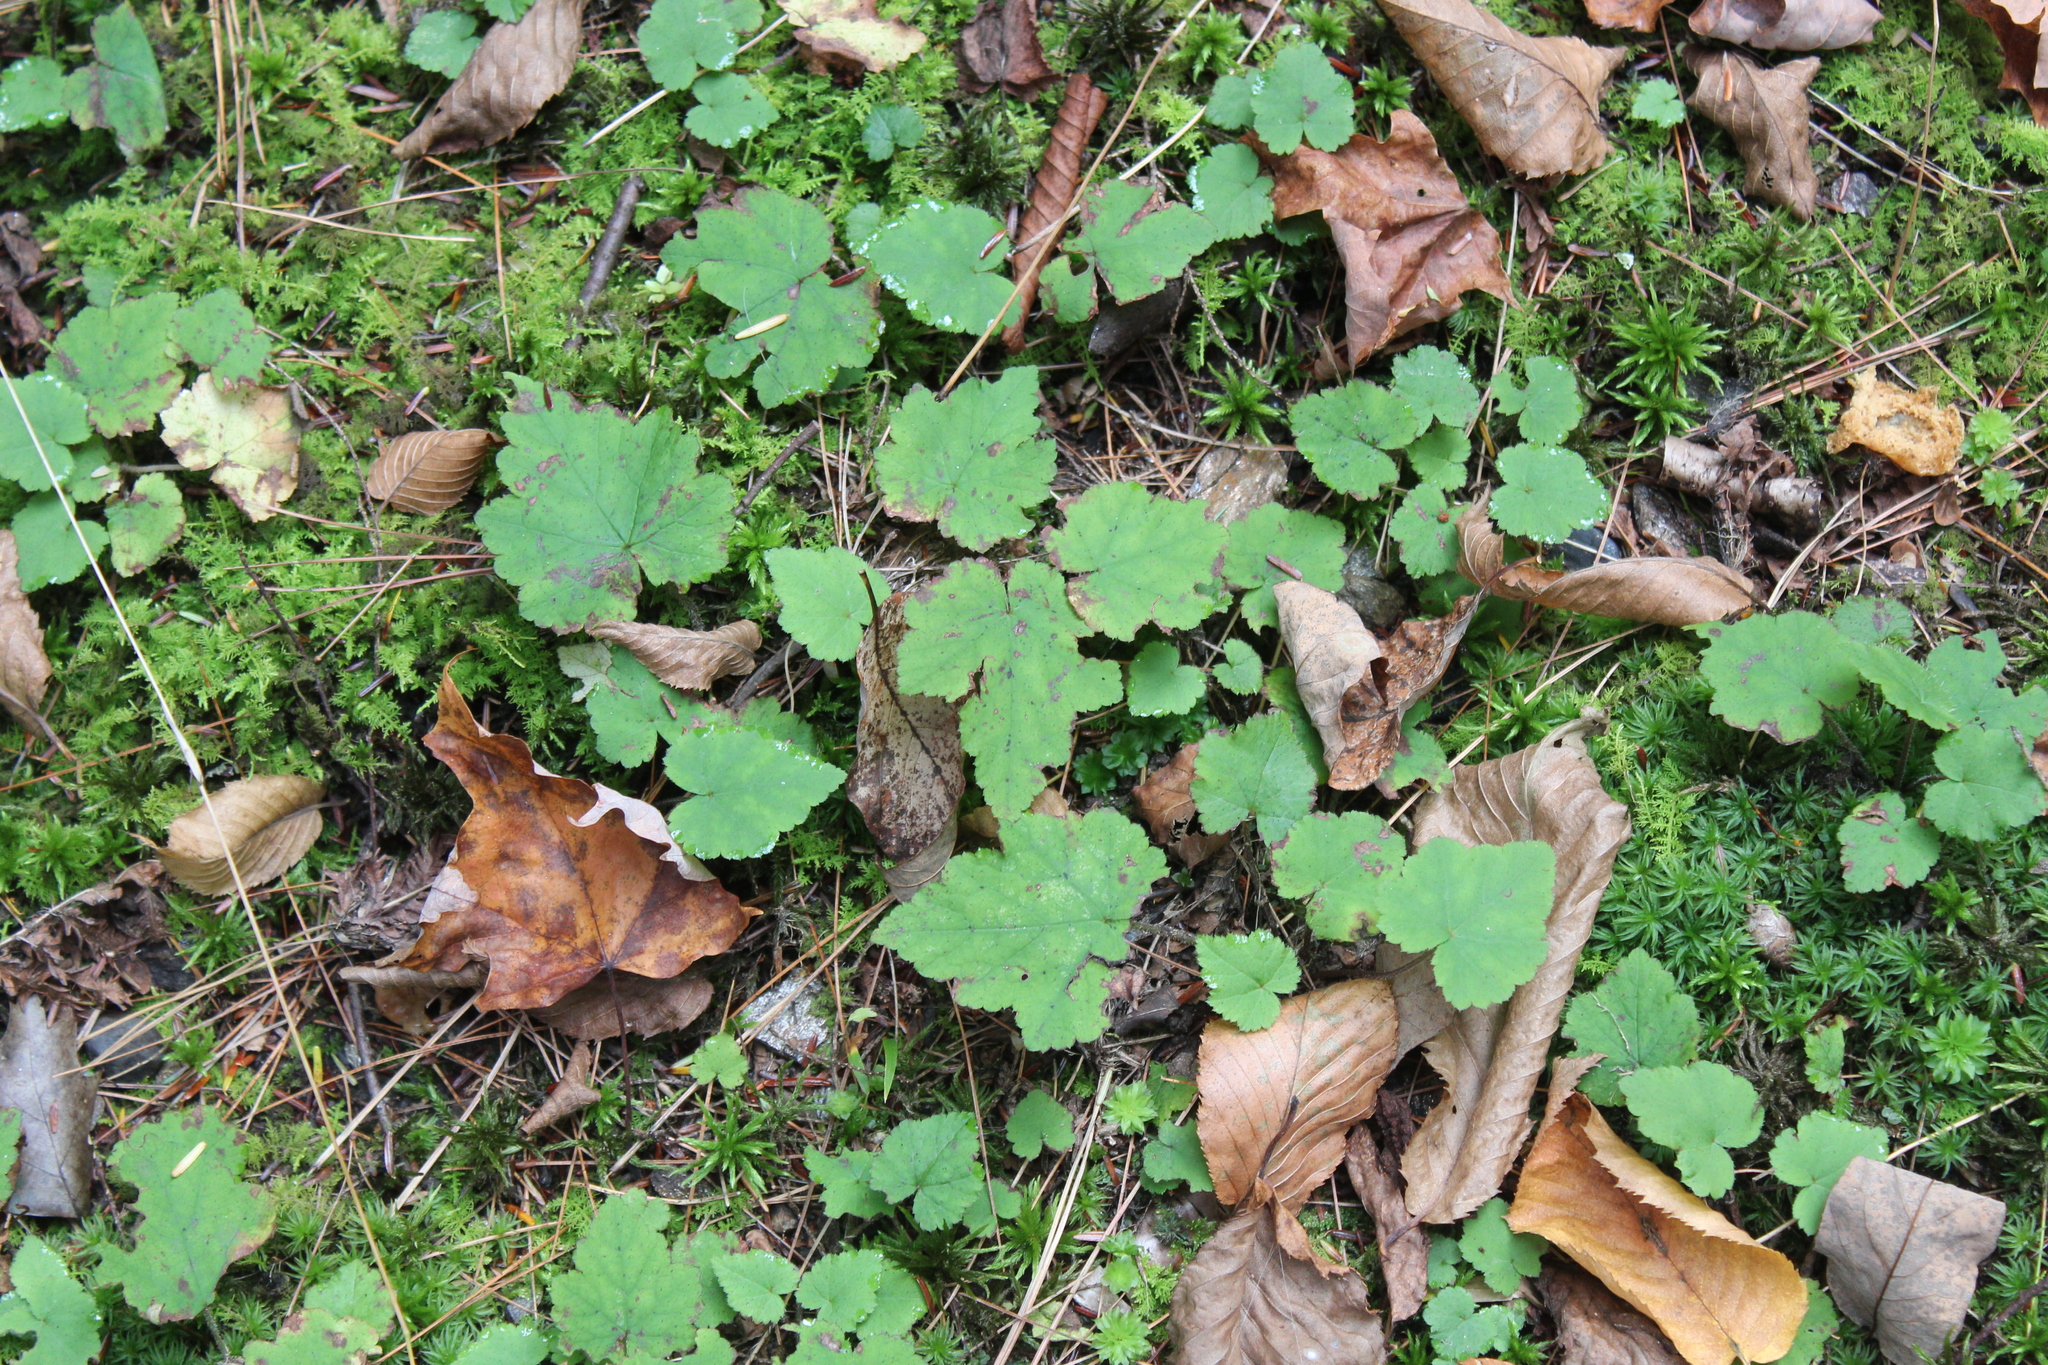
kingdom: Plantae
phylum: Tracheophyta
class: Magnoliopsida
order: Saxifragales
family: Saxifragaceae
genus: Tiarella
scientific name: Tiarella stolonifera
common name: Stoloniferous foamflower
